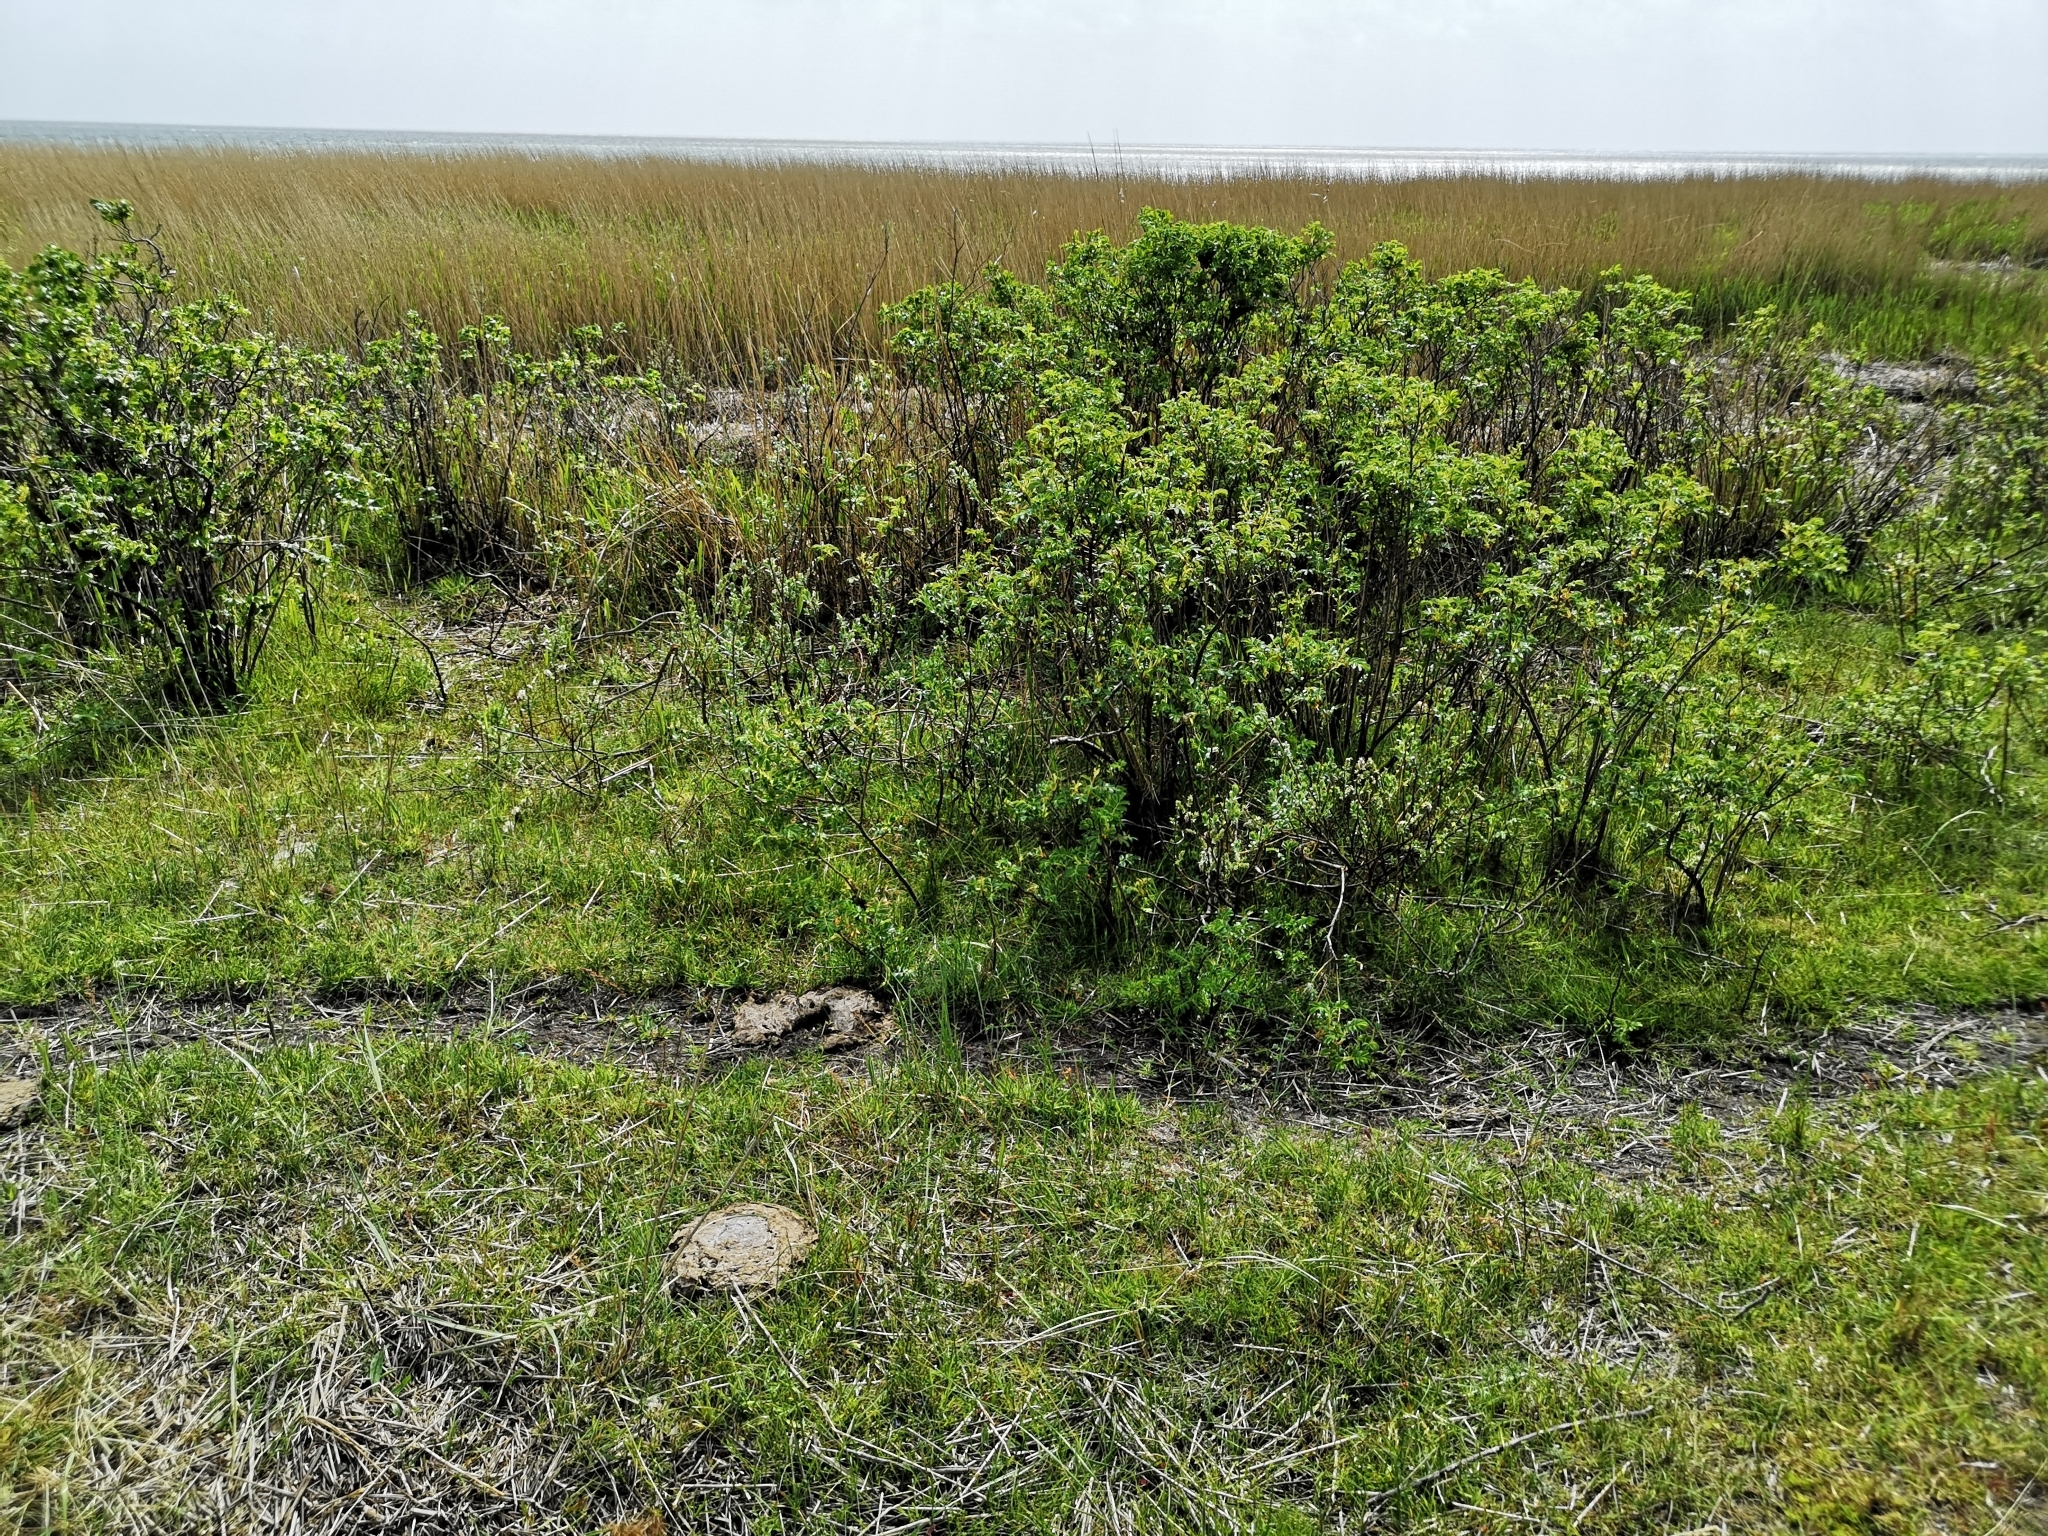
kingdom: Plantae
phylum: Tracheophyta
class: Magnoliopsida
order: Rosales
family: Rosaceae
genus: Rosa
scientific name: Rosa rugosa
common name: Japanese rose
